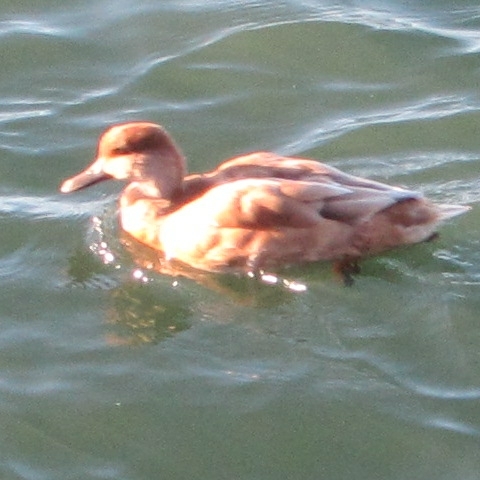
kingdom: Animalia
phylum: Chordata
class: Aves
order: Anseriformes
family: Anatidae
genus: Netta
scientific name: Netta rufina
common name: Red-crested pochard
